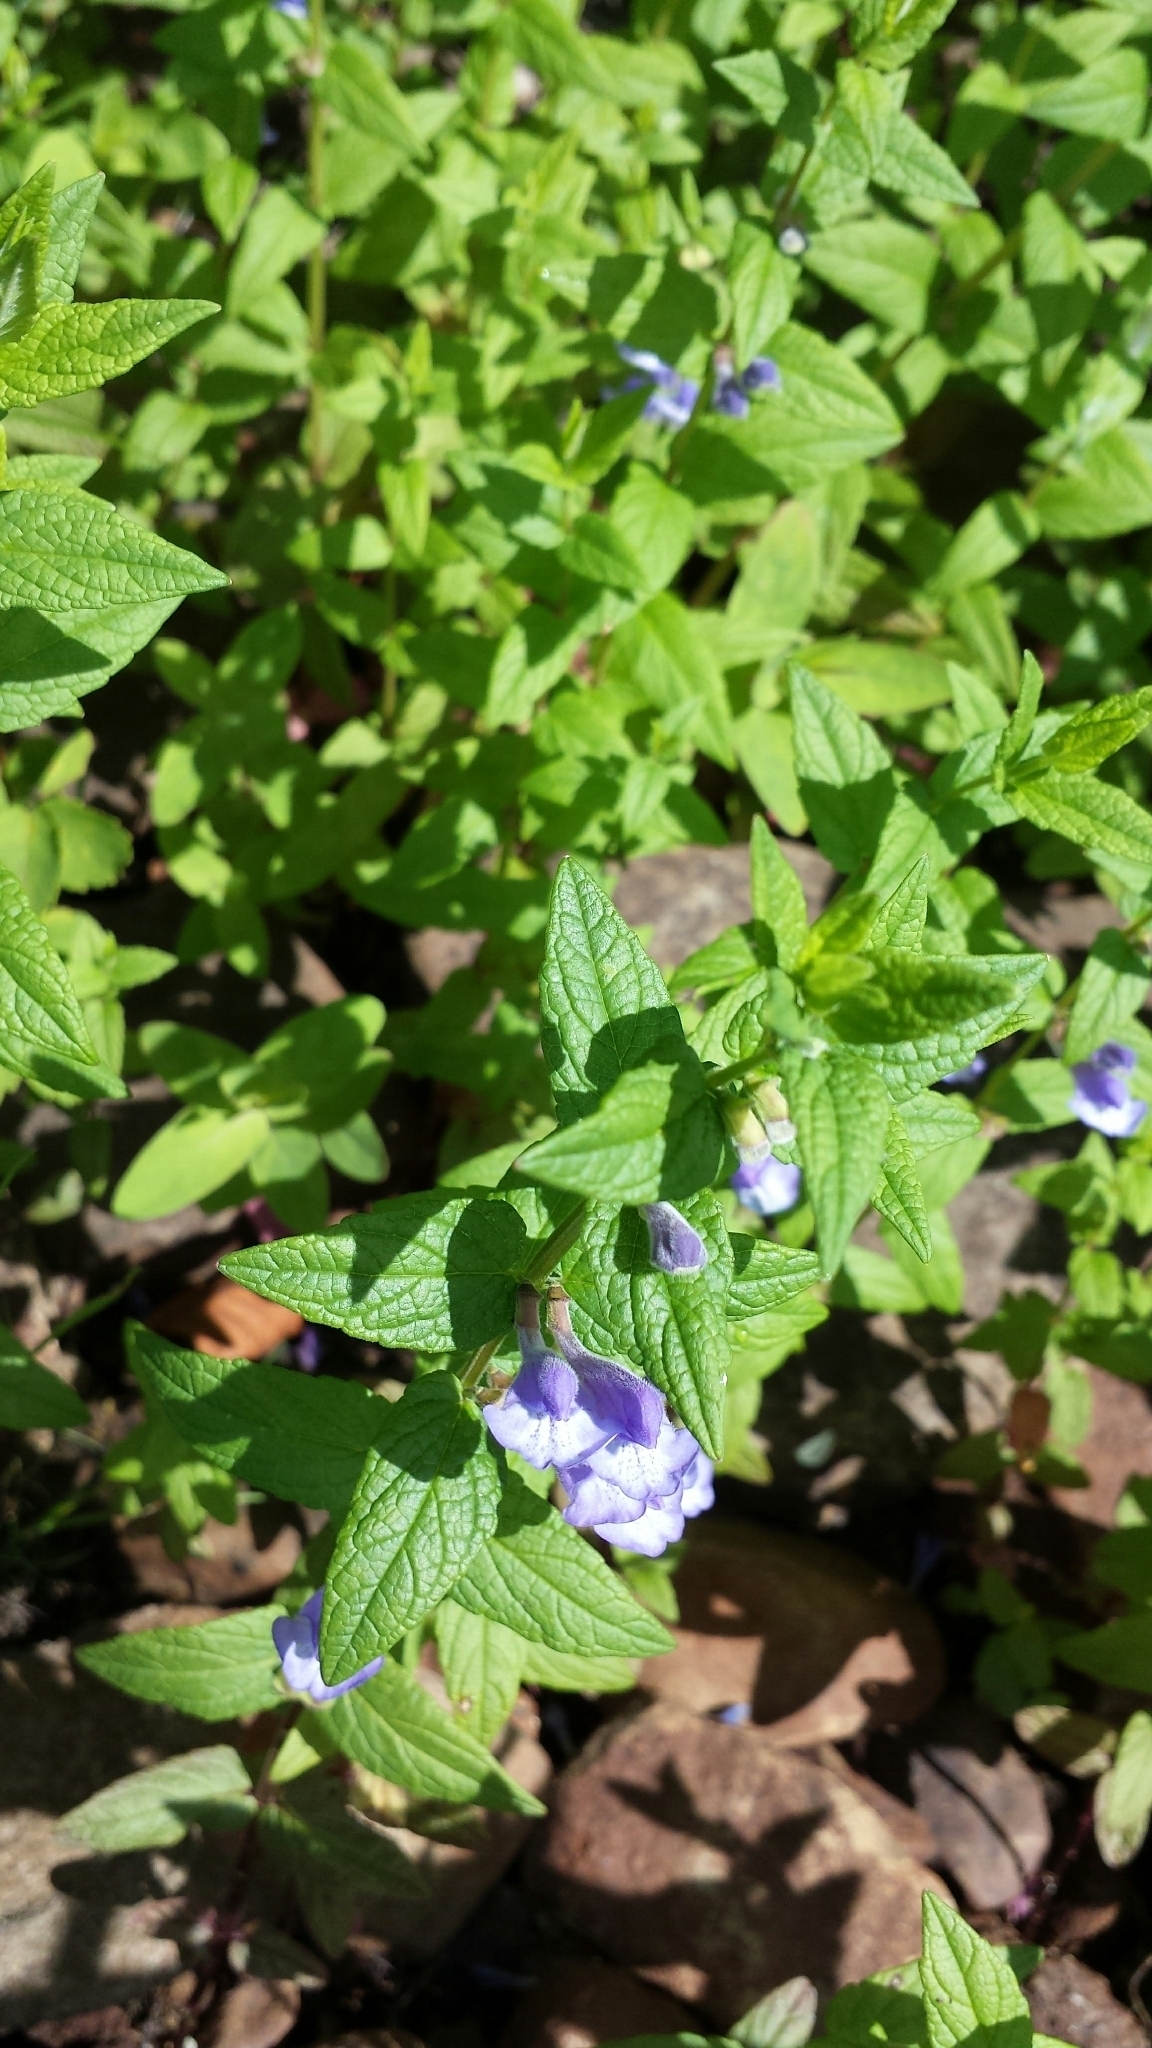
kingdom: Plantae
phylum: Tracheophyta
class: Magnoliopsida
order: Lamiales
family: Lamiaceae
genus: Scutellaria
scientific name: Scutellaria galericulata
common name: Skullcap
